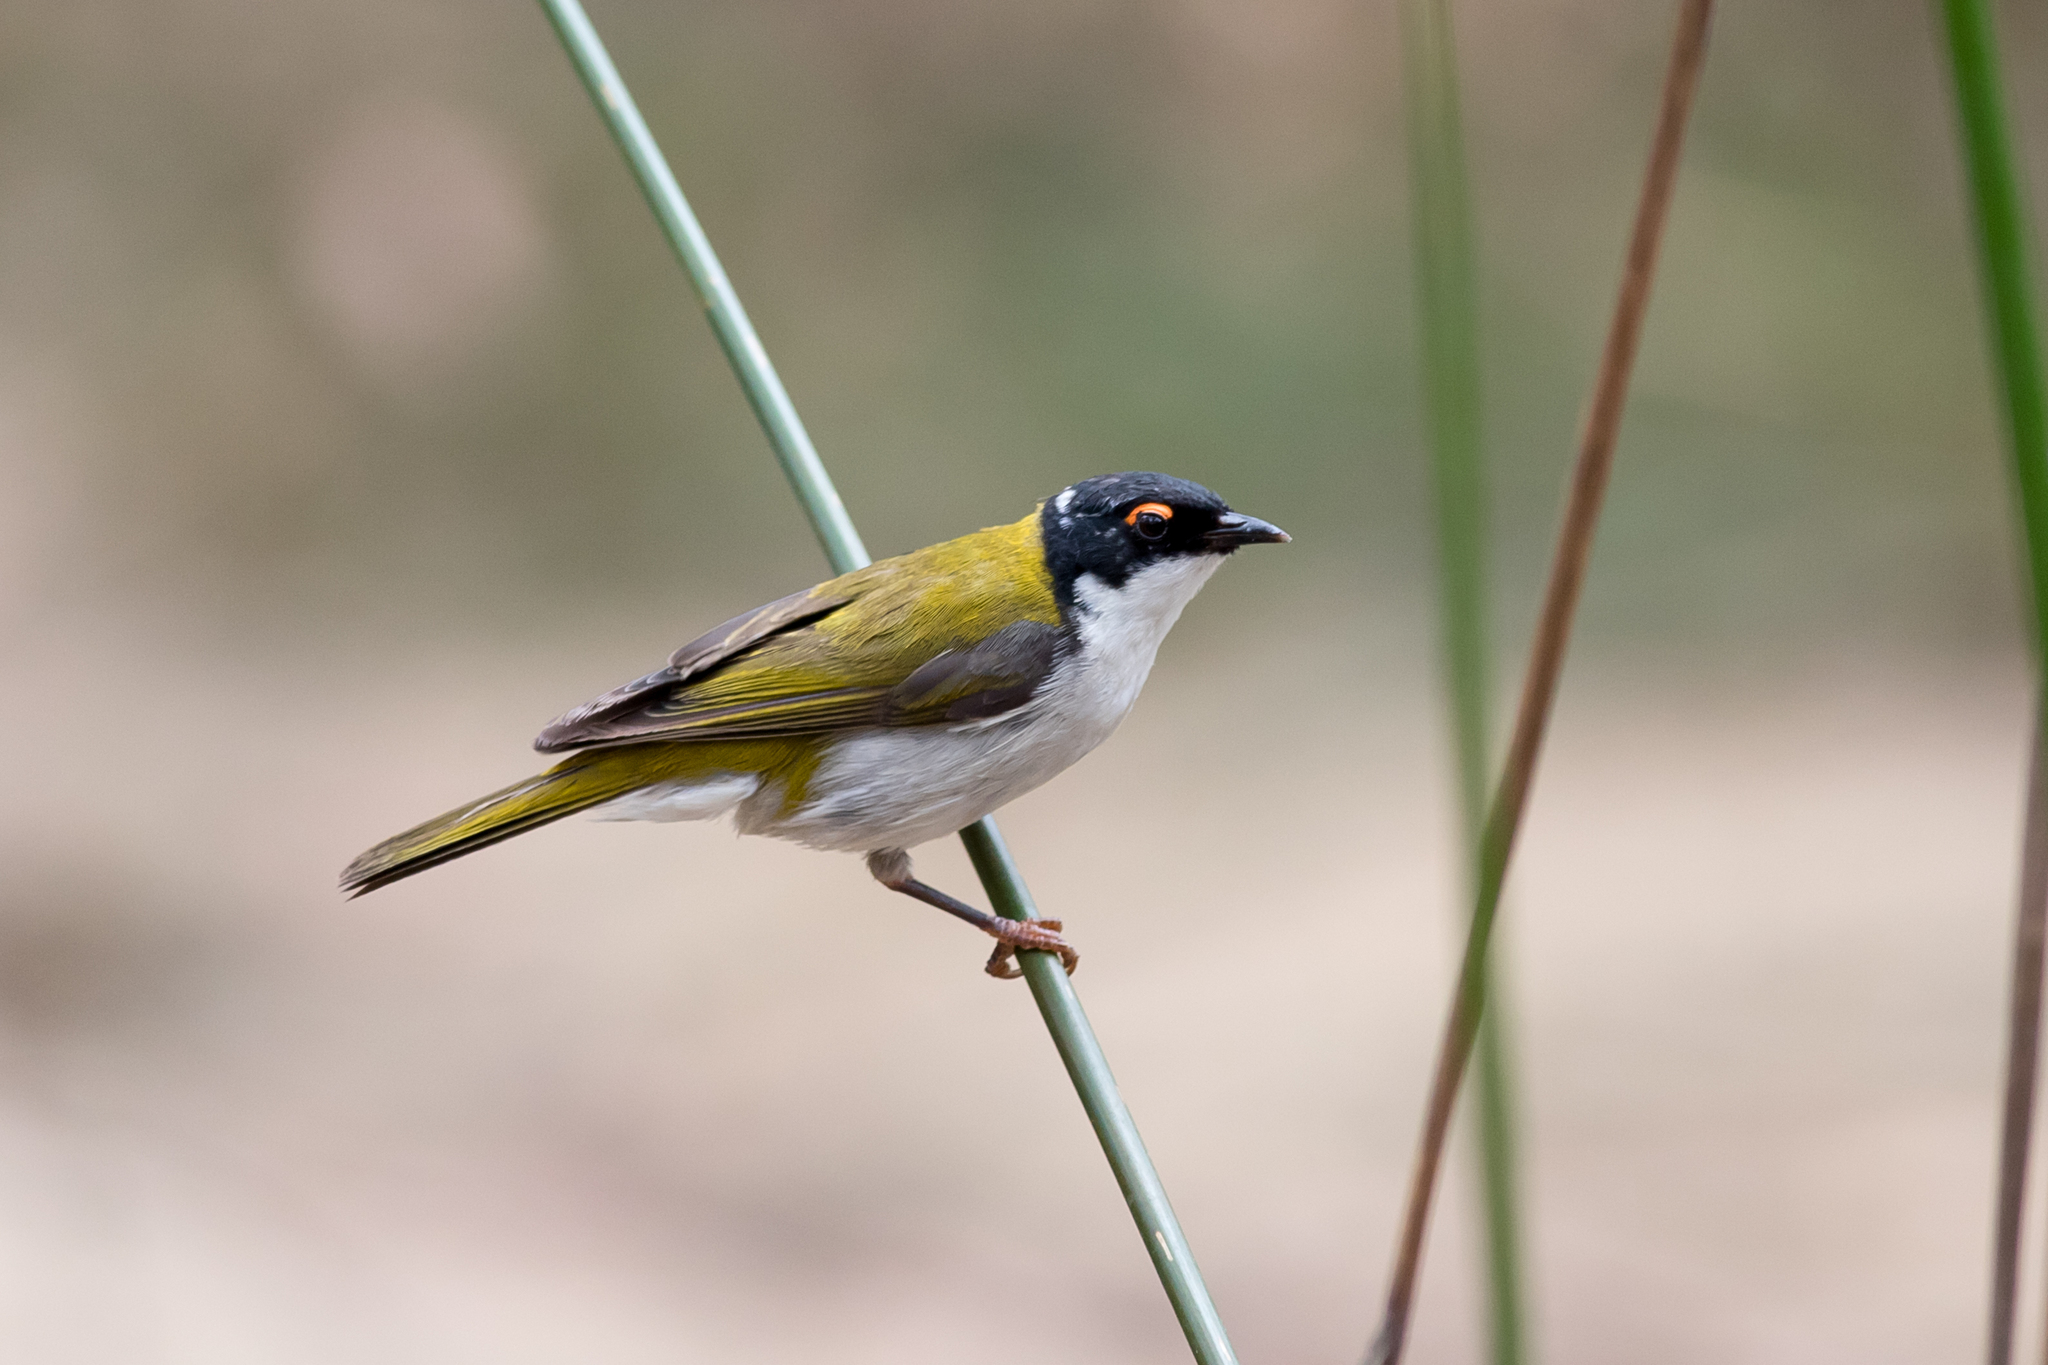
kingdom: Animalia
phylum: Chordata
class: Aves
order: Passeriformes
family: Meliphagidae
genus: Melithreptus
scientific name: Melithreptus lunatus
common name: White-naped honeyeater
